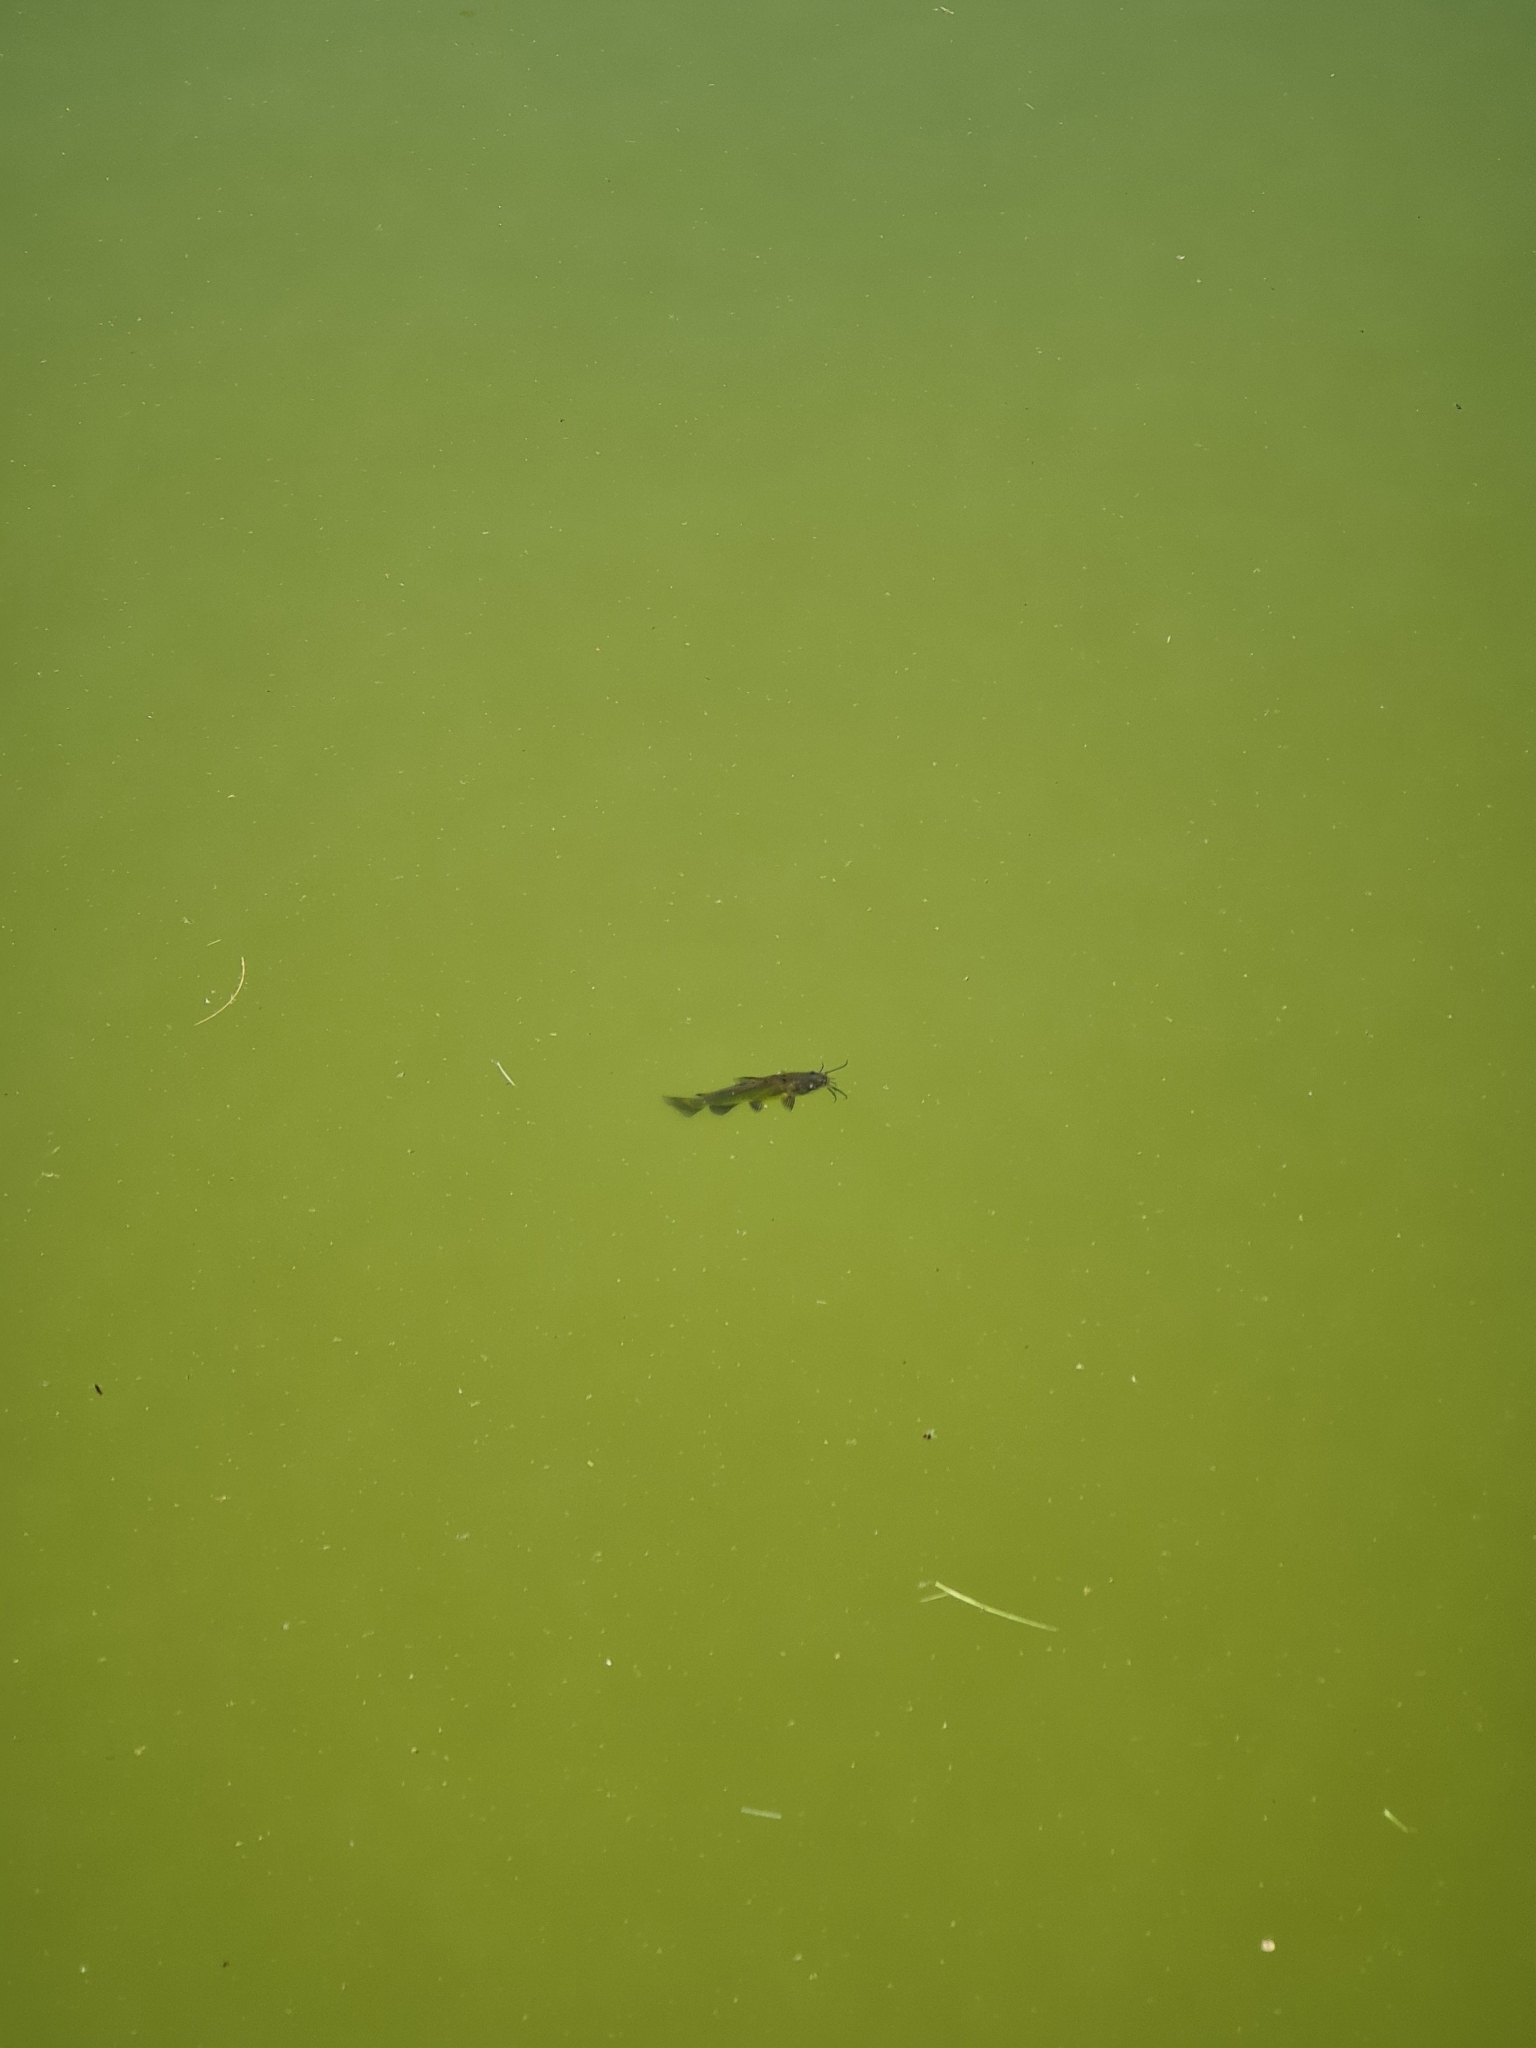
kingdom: Animalia
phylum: Chordata
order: Siluriformes
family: Ictaluridae
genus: Ameiurus
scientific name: Ameiurus melas
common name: Black bullhead
